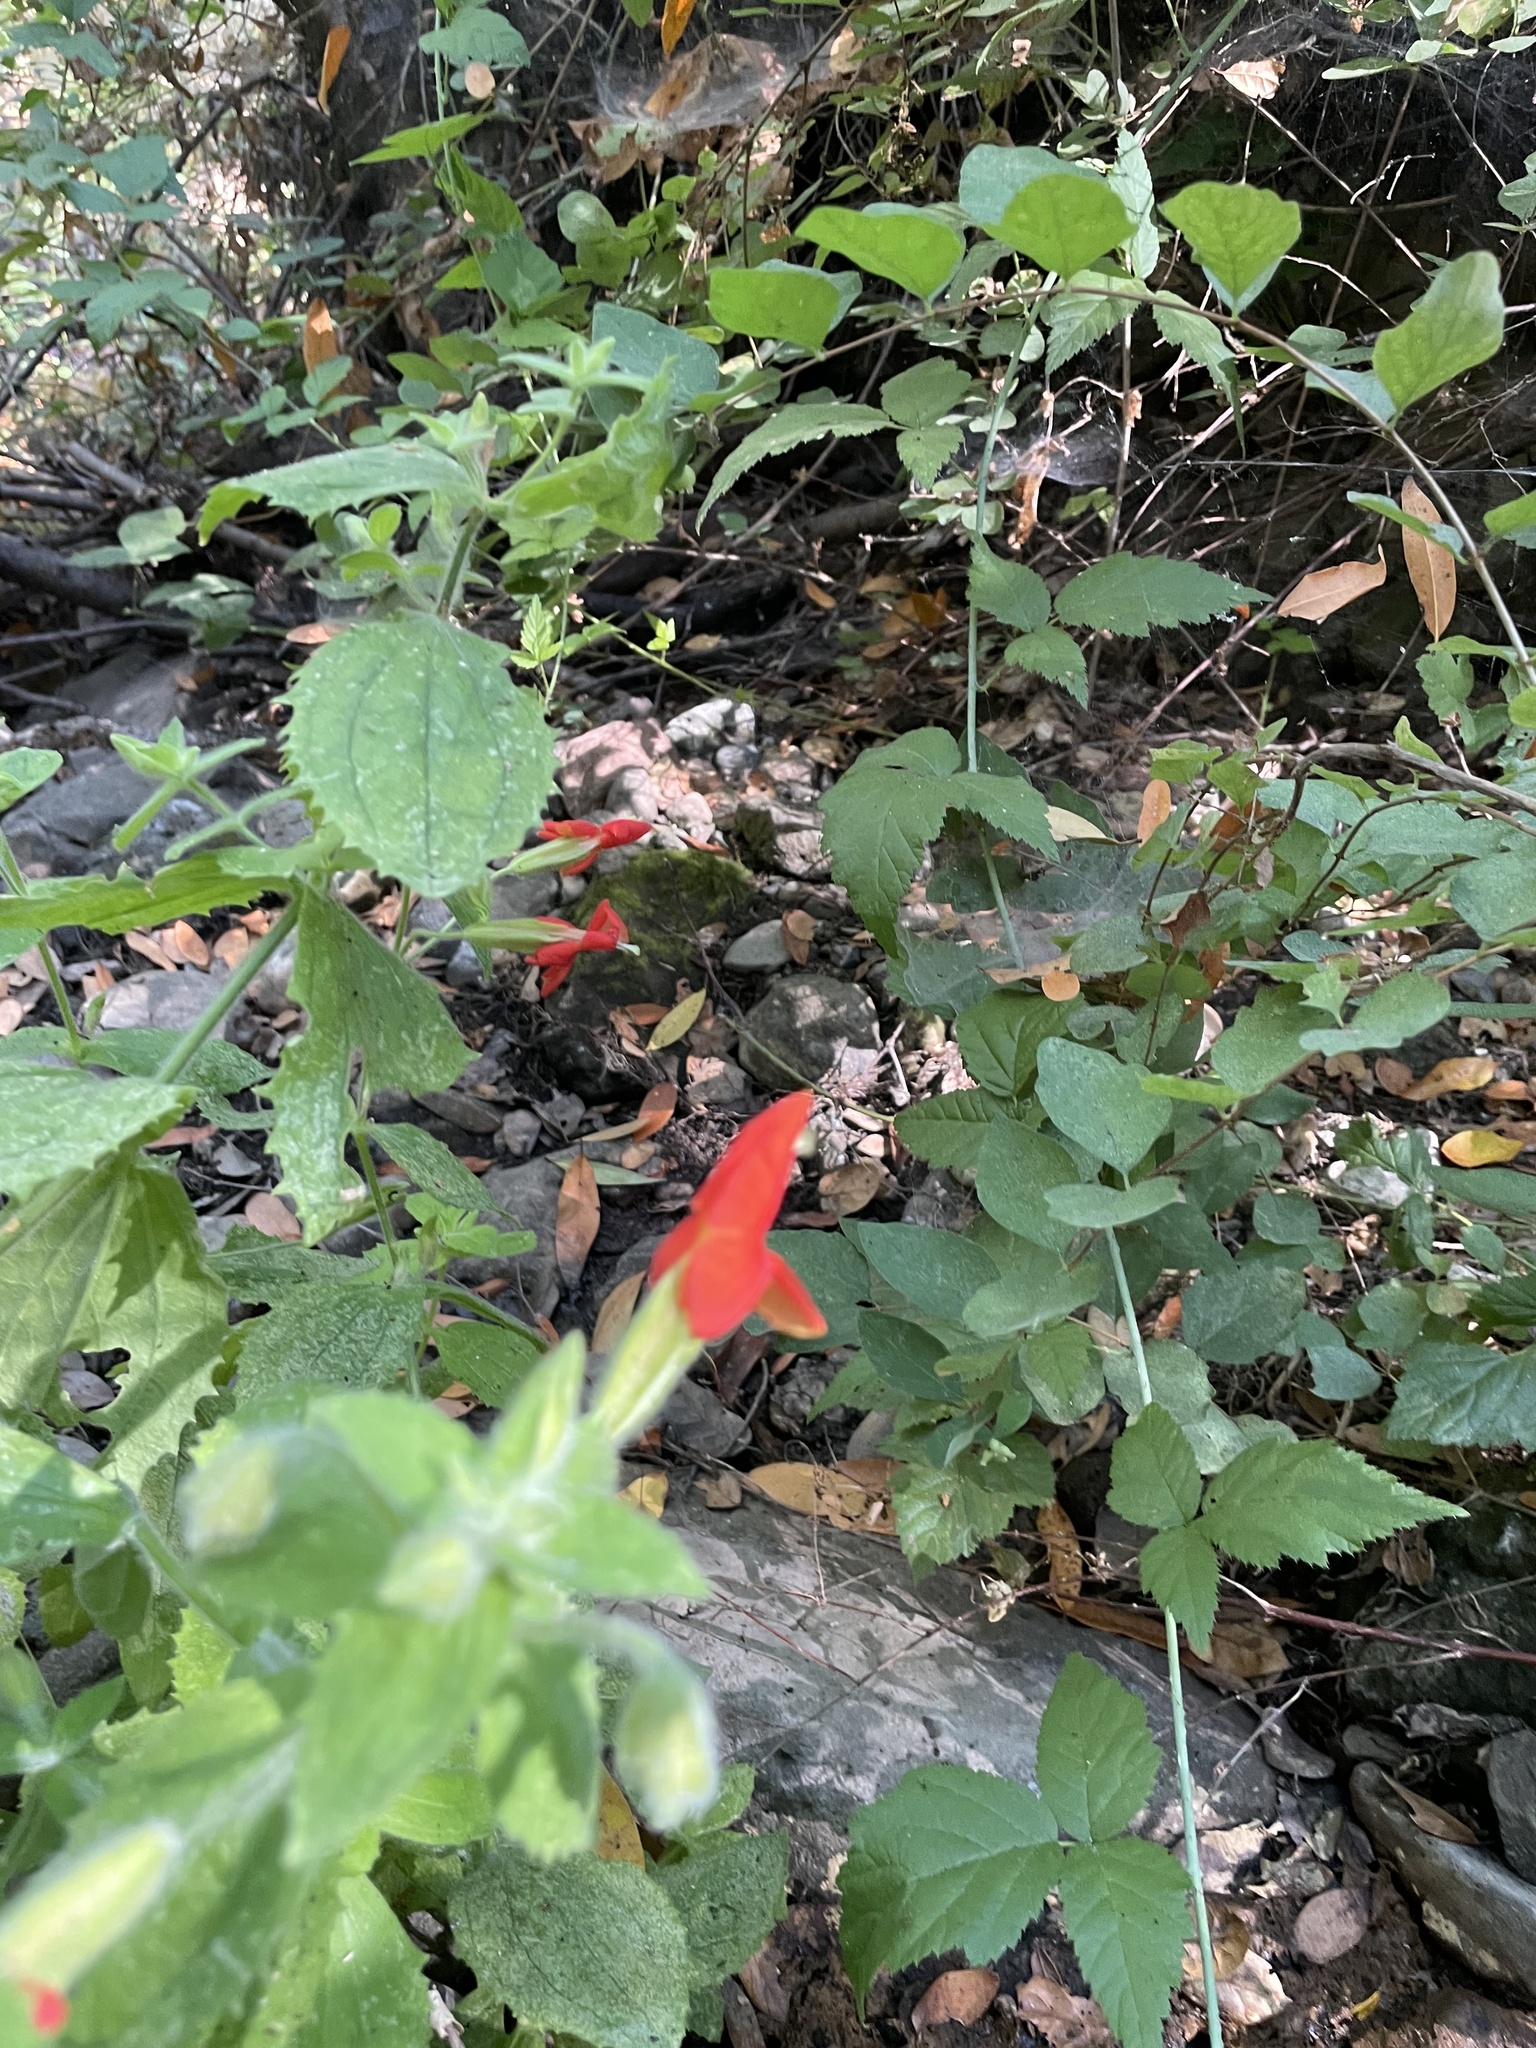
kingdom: Plantae
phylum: Tracheophyta
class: Magnoliopsida
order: Lamiales
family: Phrymaceae
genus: Erythranthe
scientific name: Erythranthe cardinalis
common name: Scarlet monkey-flower
